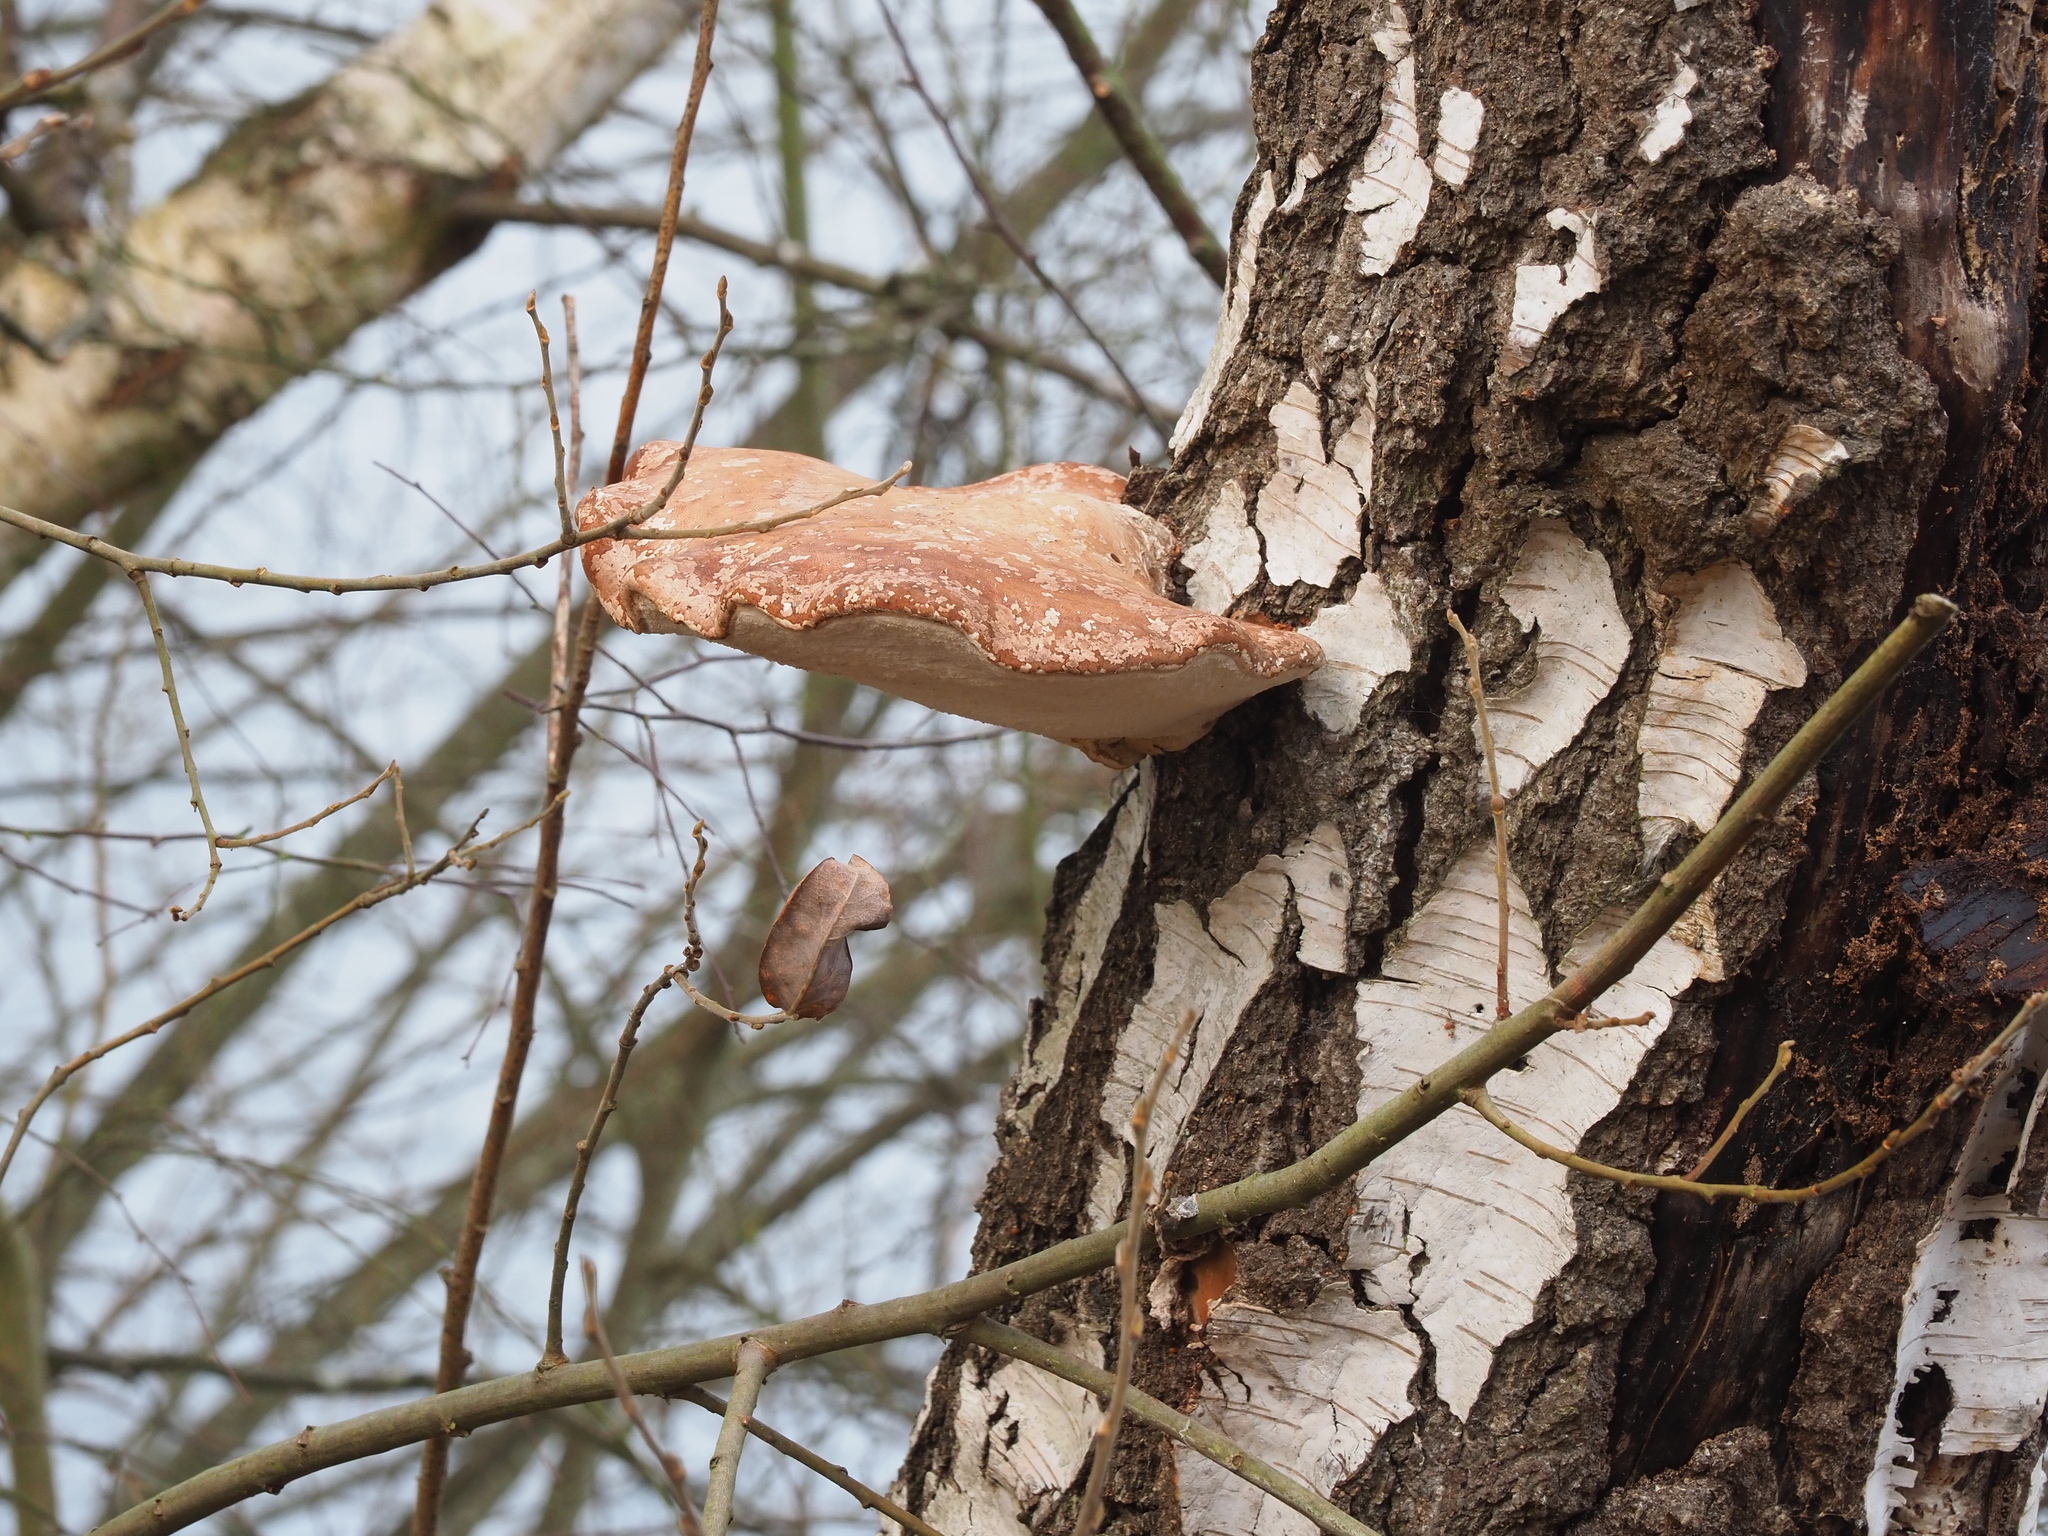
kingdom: Fungi
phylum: Basidiomycota
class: Agaricomycetes
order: Polyporales
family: Fomitopsidaceae
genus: Fomitopsis
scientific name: Fomitopsis betulina
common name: Birch polypore
